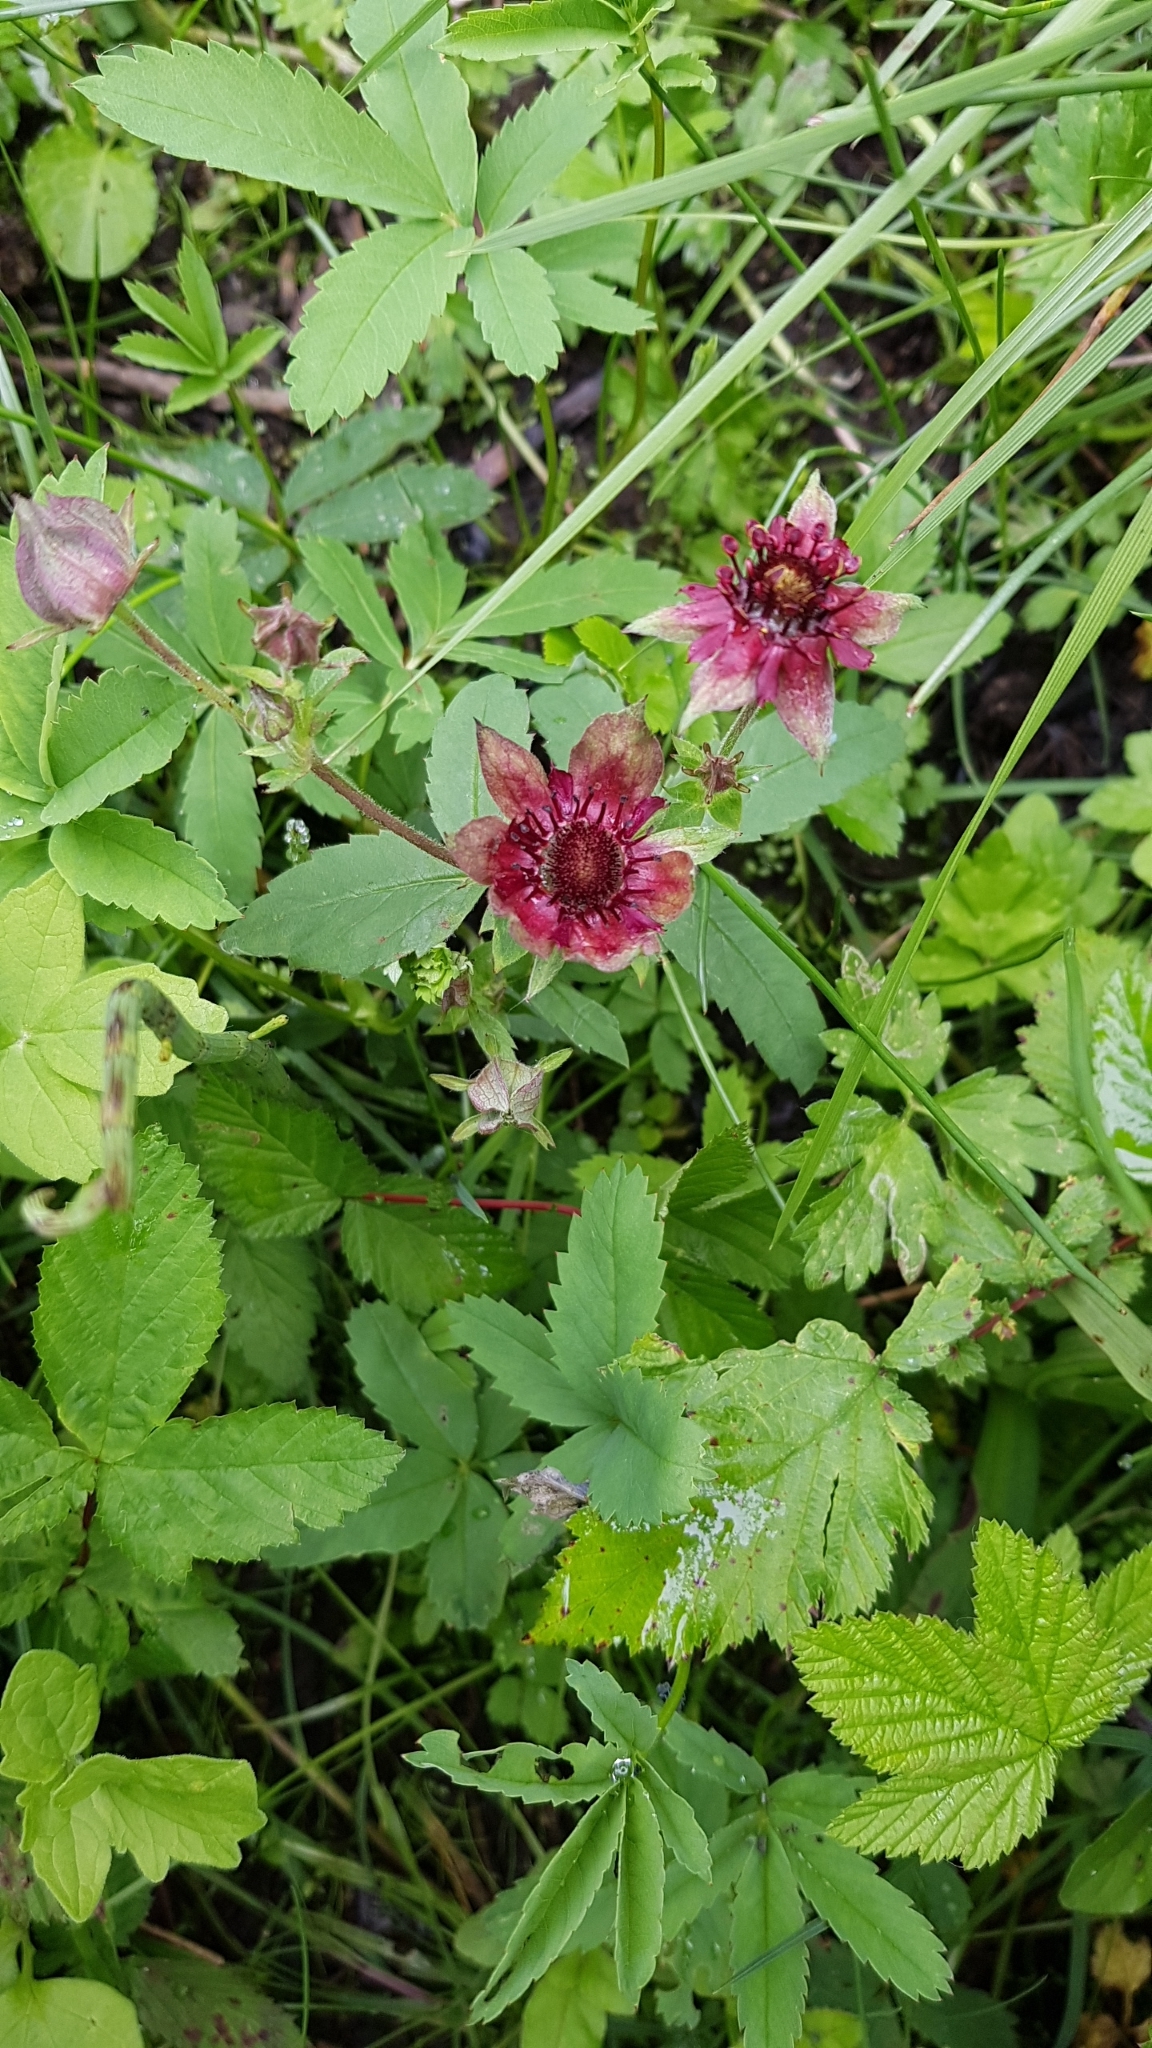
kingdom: Plantae
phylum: Tracheophyta
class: Magnoliopsida
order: Rosales
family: Rosaceae
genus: Comarum
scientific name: Comarum palustre
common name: Marsh cinquefoil
